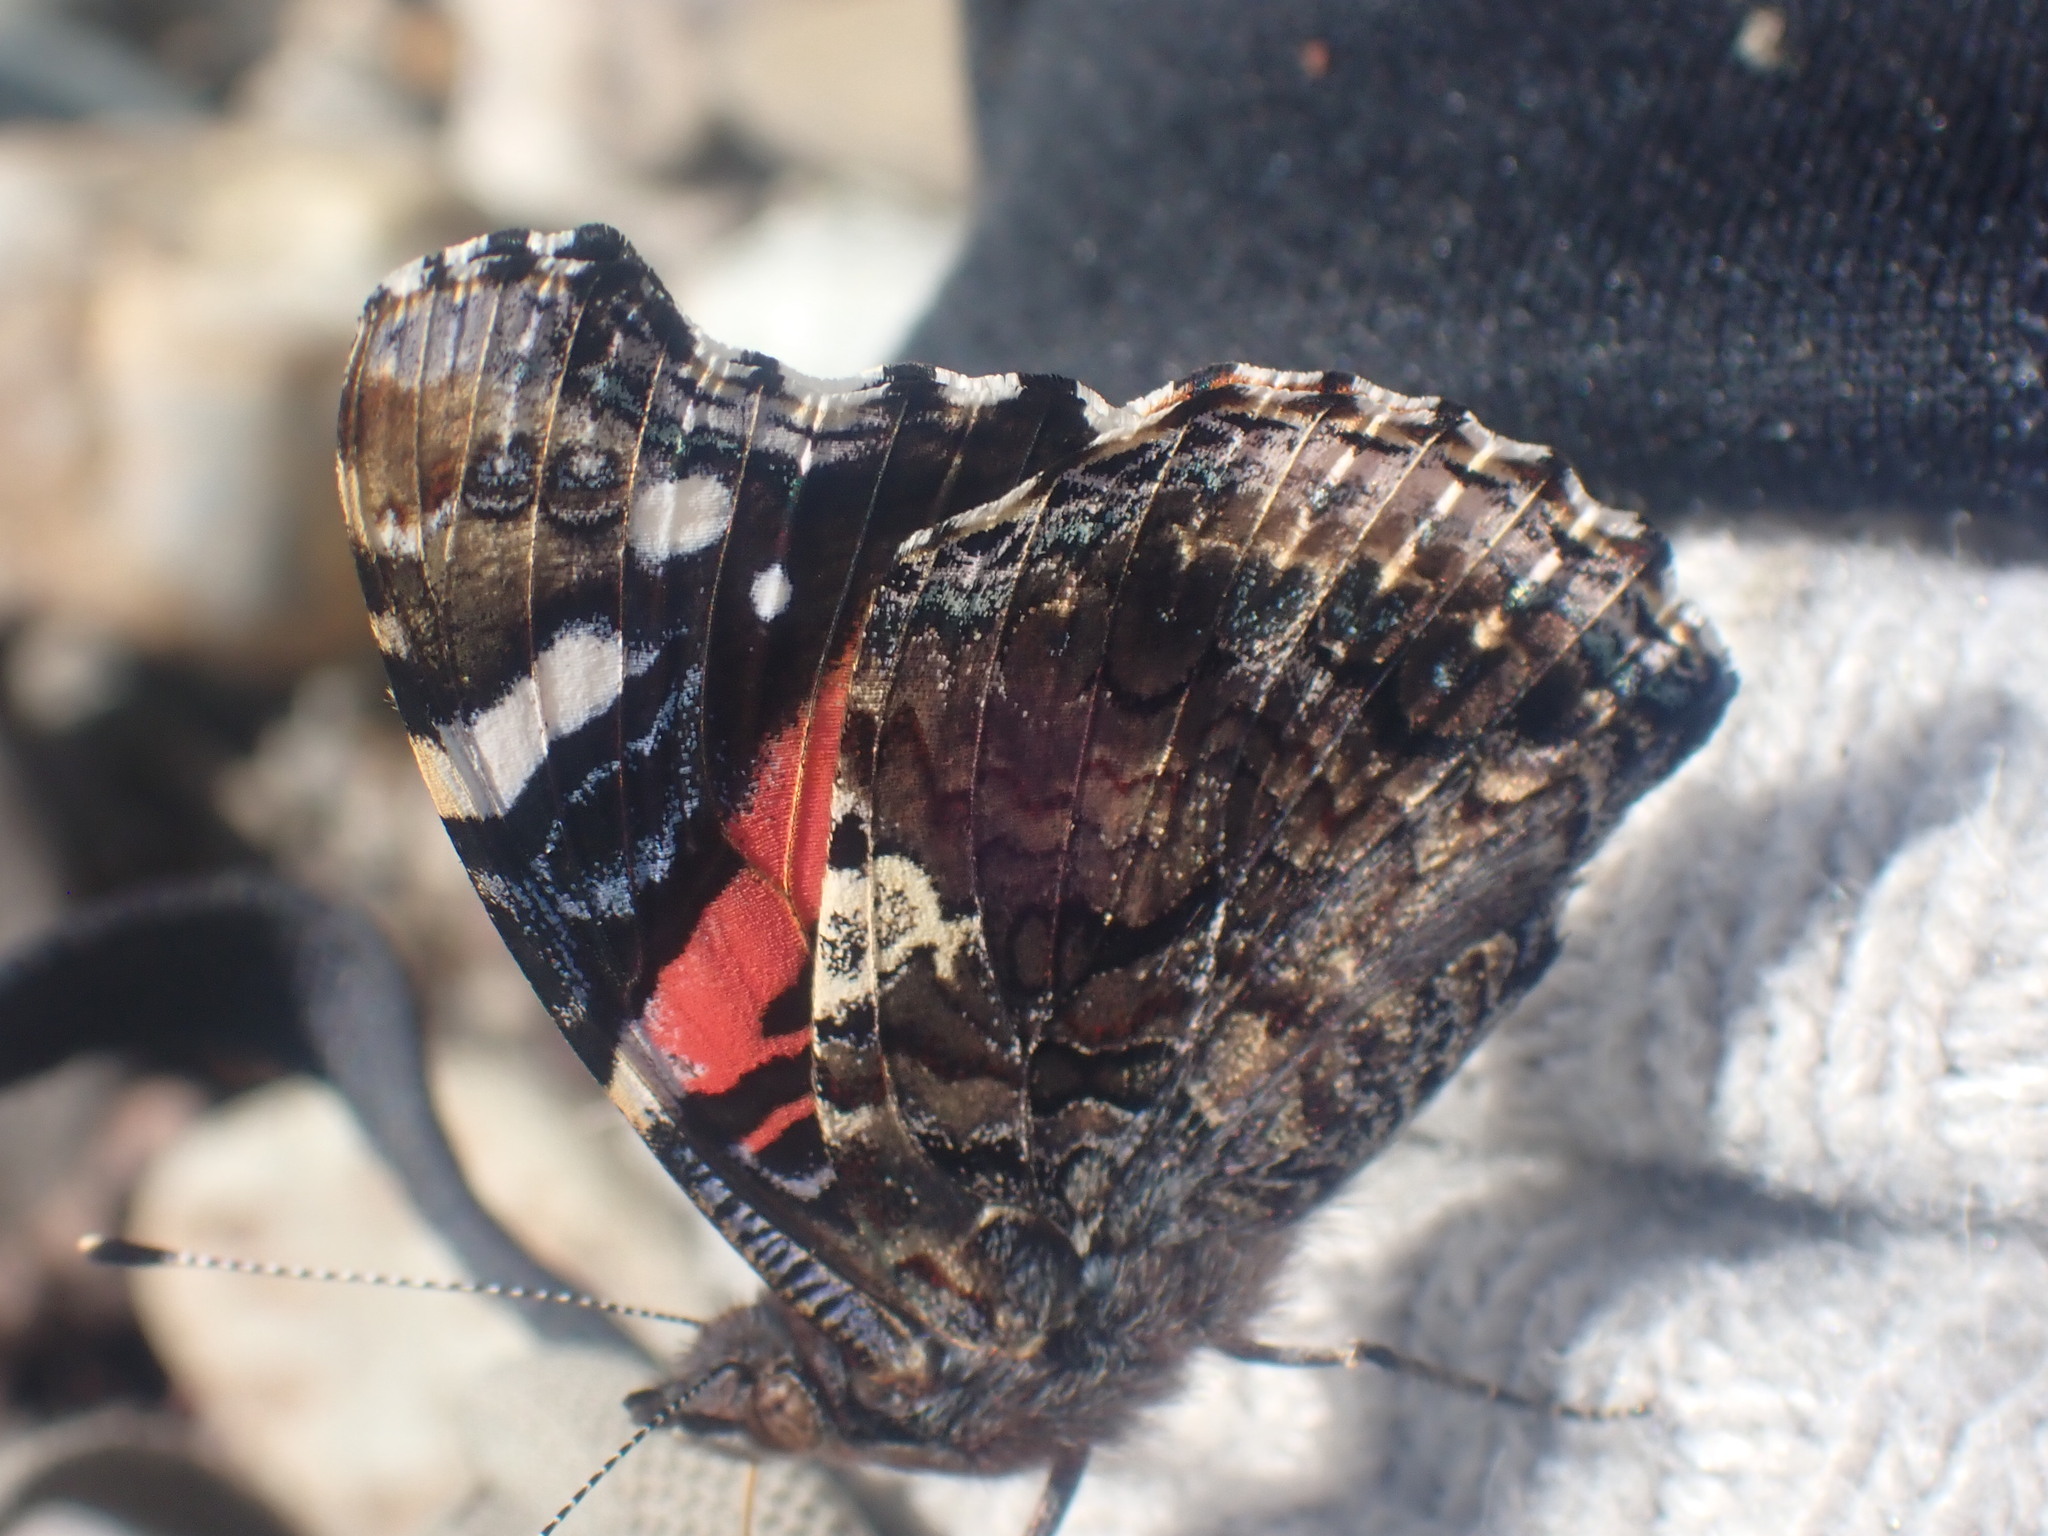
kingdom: Animalia
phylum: Arthropoda
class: Insecta
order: Lepidoptera
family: Nymphalidae
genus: Vanessa
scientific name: Vanessa atalanta
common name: Red admiral
